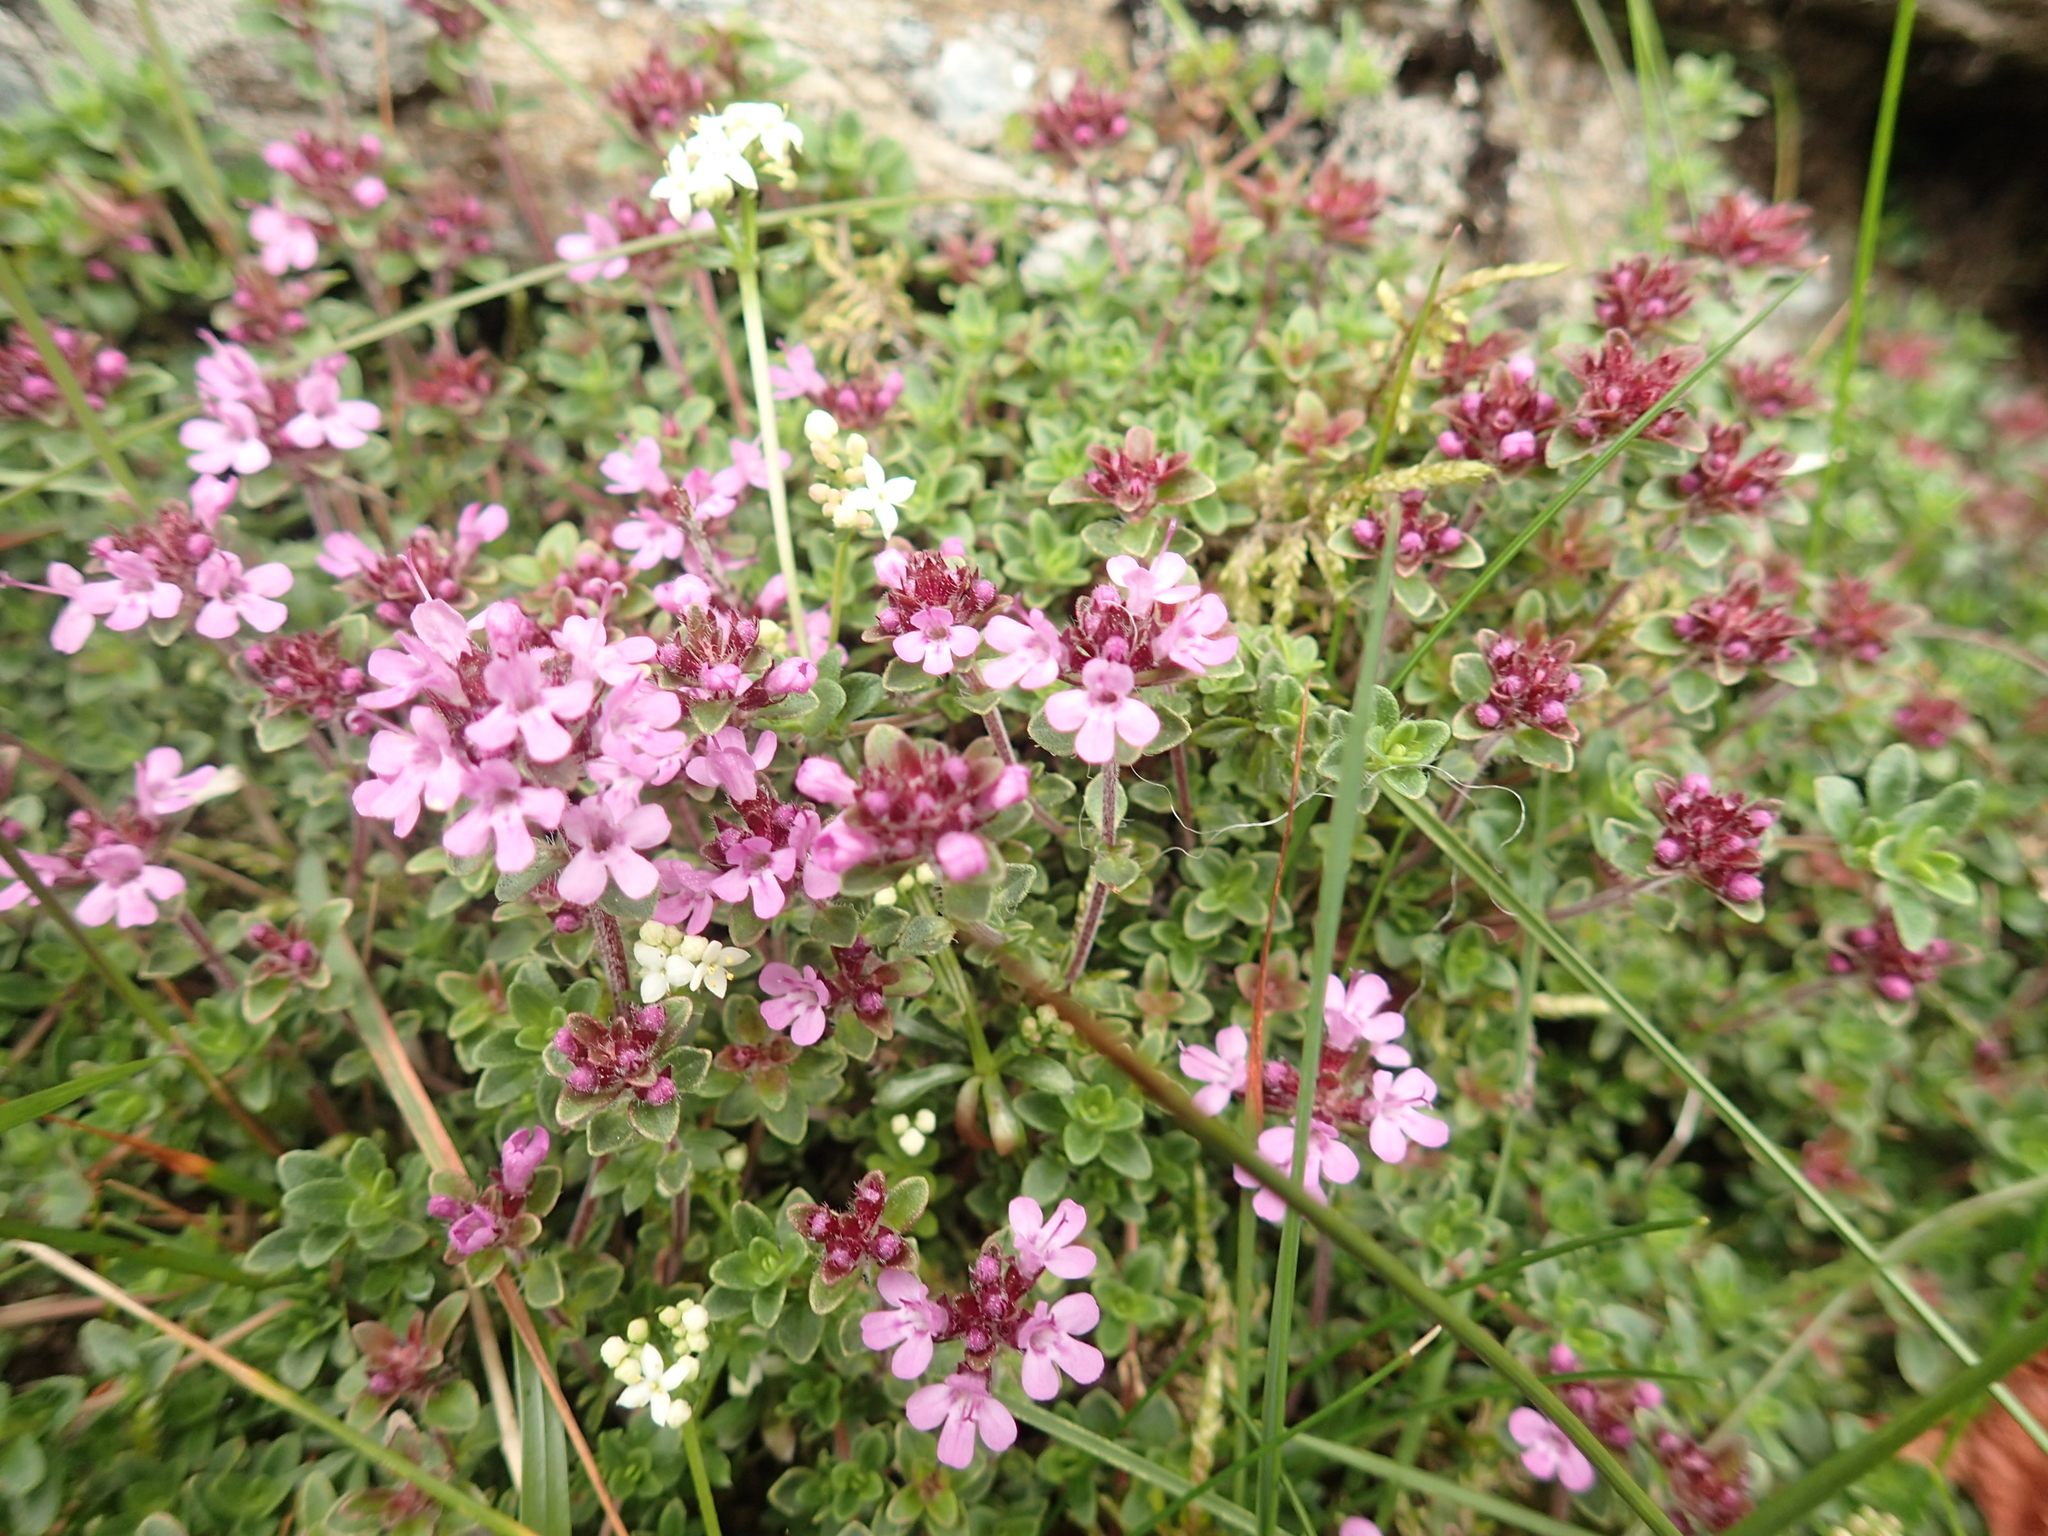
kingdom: Plantae
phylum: Tracheophyta
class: Magnoliopsida
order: Lamiales
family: Lamiaceae
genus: Thymus
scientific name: Thymus praecox
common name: Wild thyme
